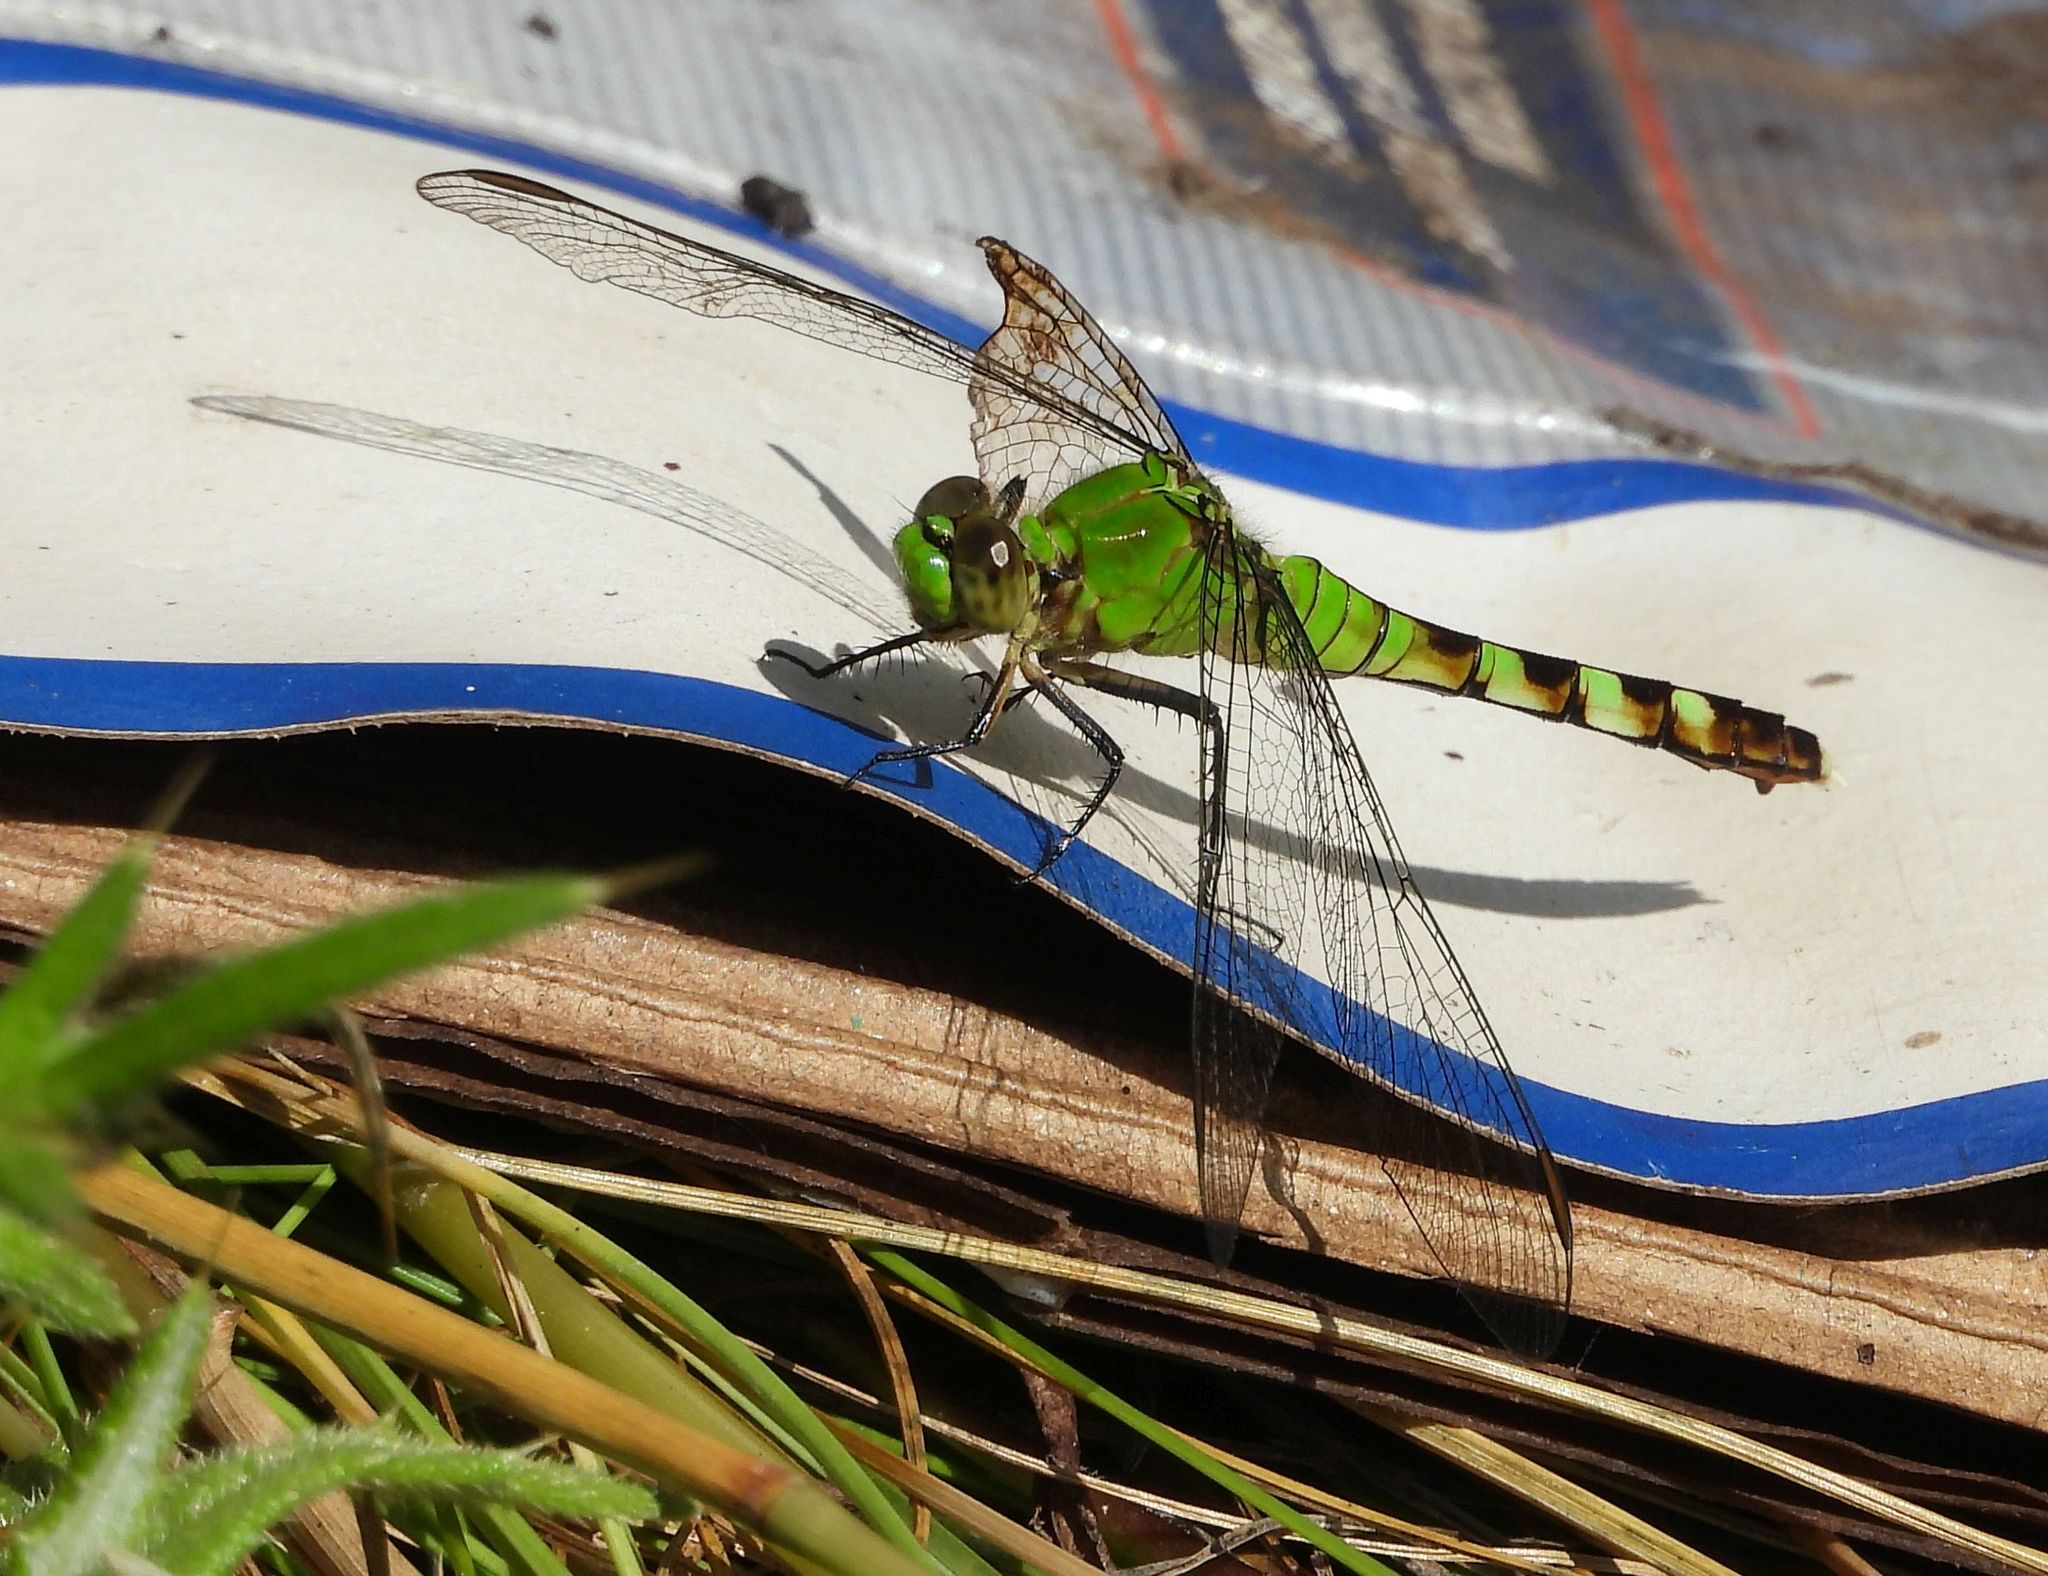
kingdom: Animalia
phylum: Arthropoda
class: Insecta
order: Odonata
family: Libellulidae
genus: Erythemis
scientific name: Erythemis simplicicollis
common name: Eastern pondhawk
